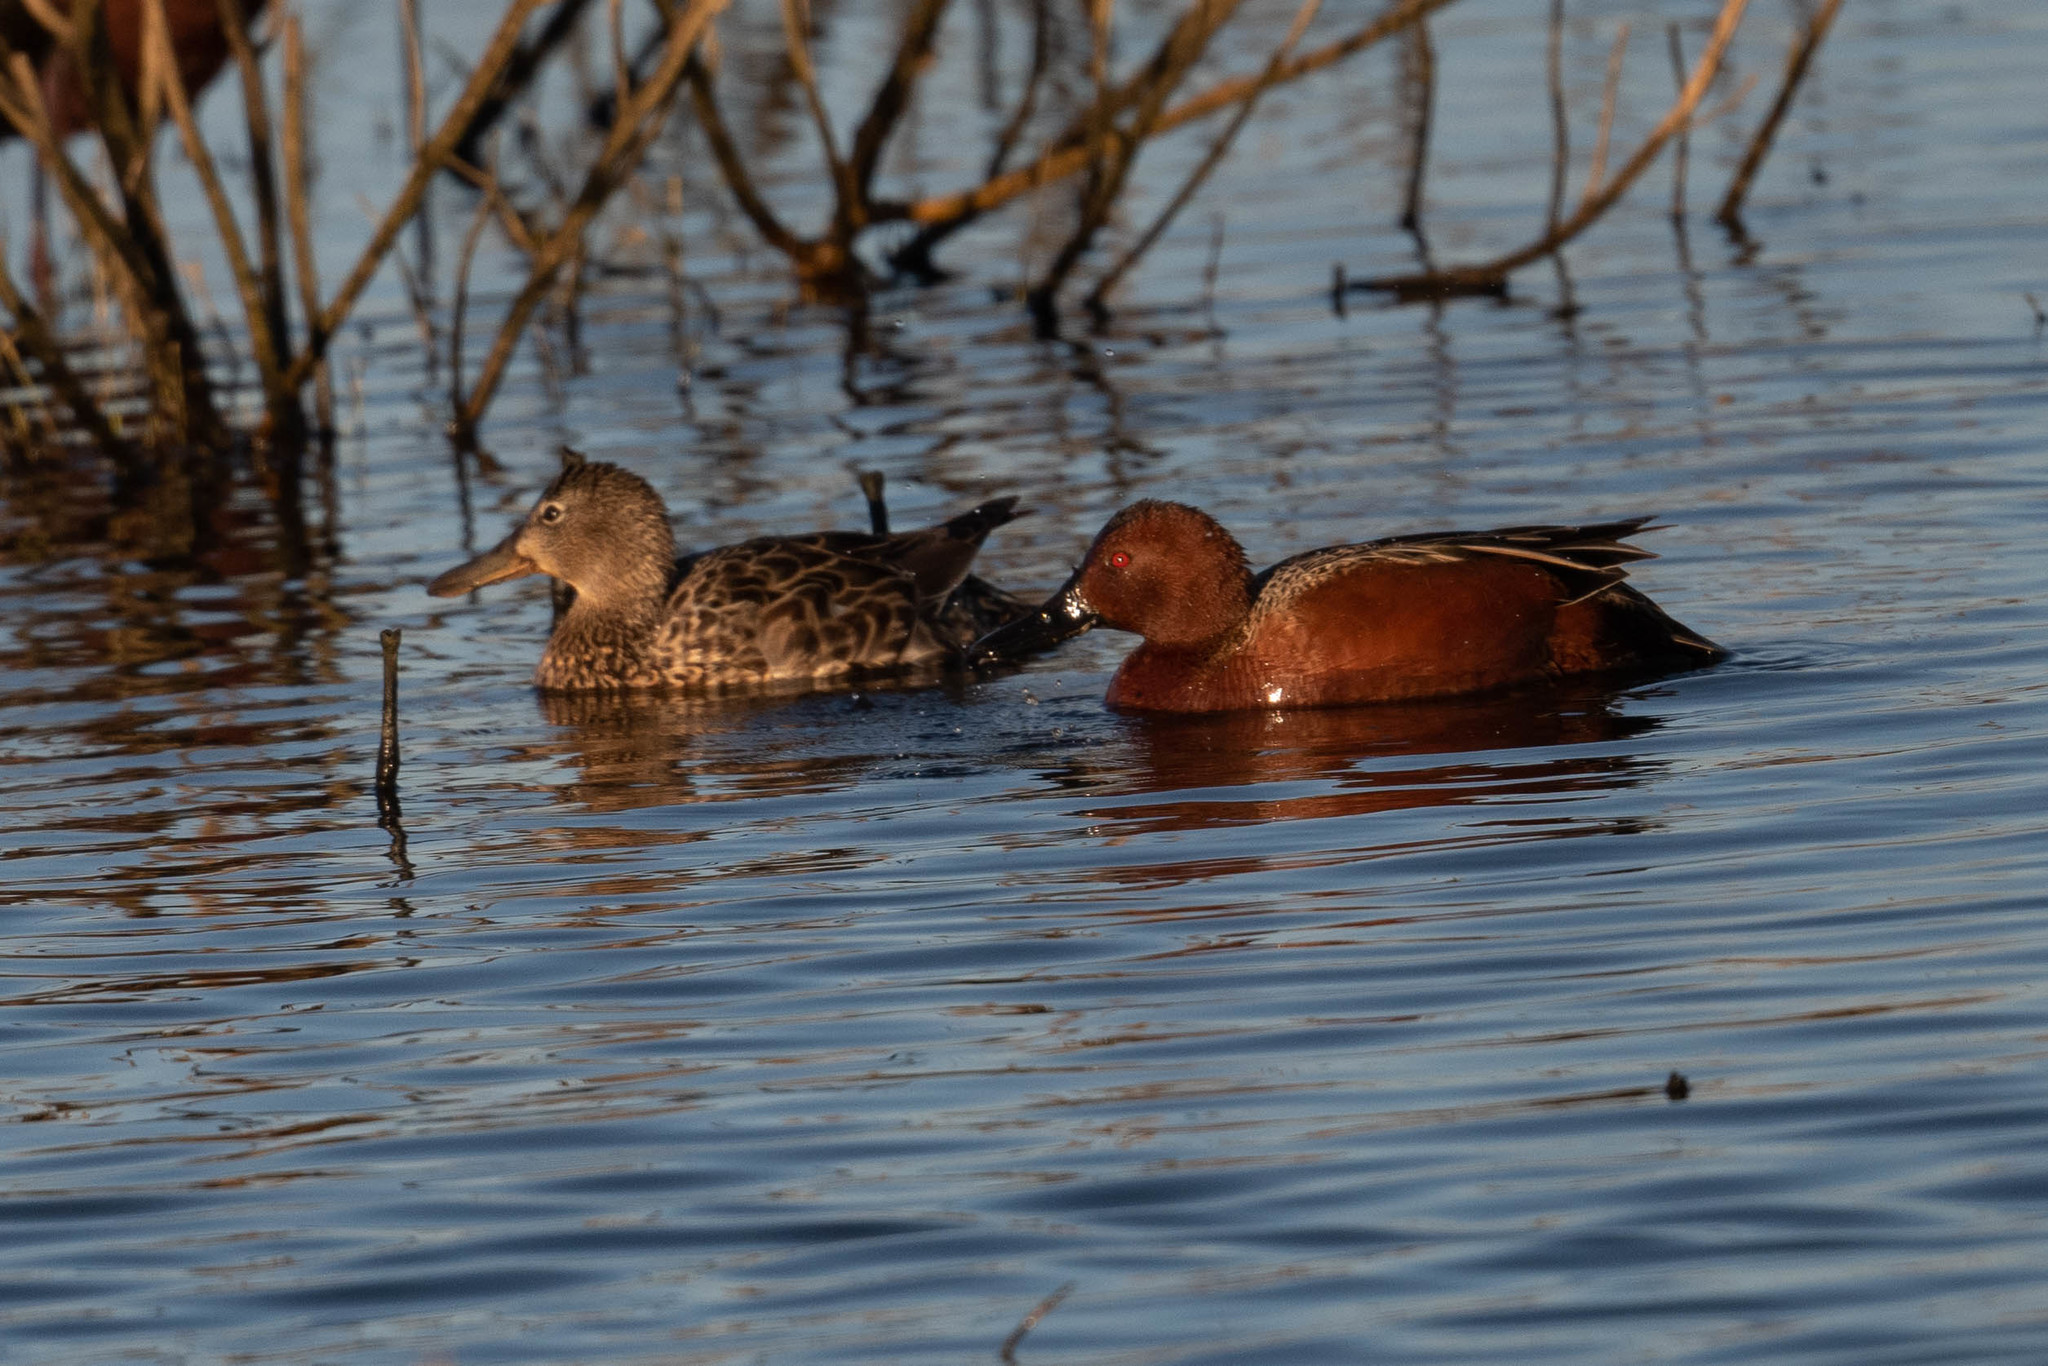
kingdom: Animalia
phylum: Chordata
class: Aves
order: Anseriformes
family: Anatidae
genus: Spatula
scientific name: Spatula cyanoptera
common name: Cinnamon teal
